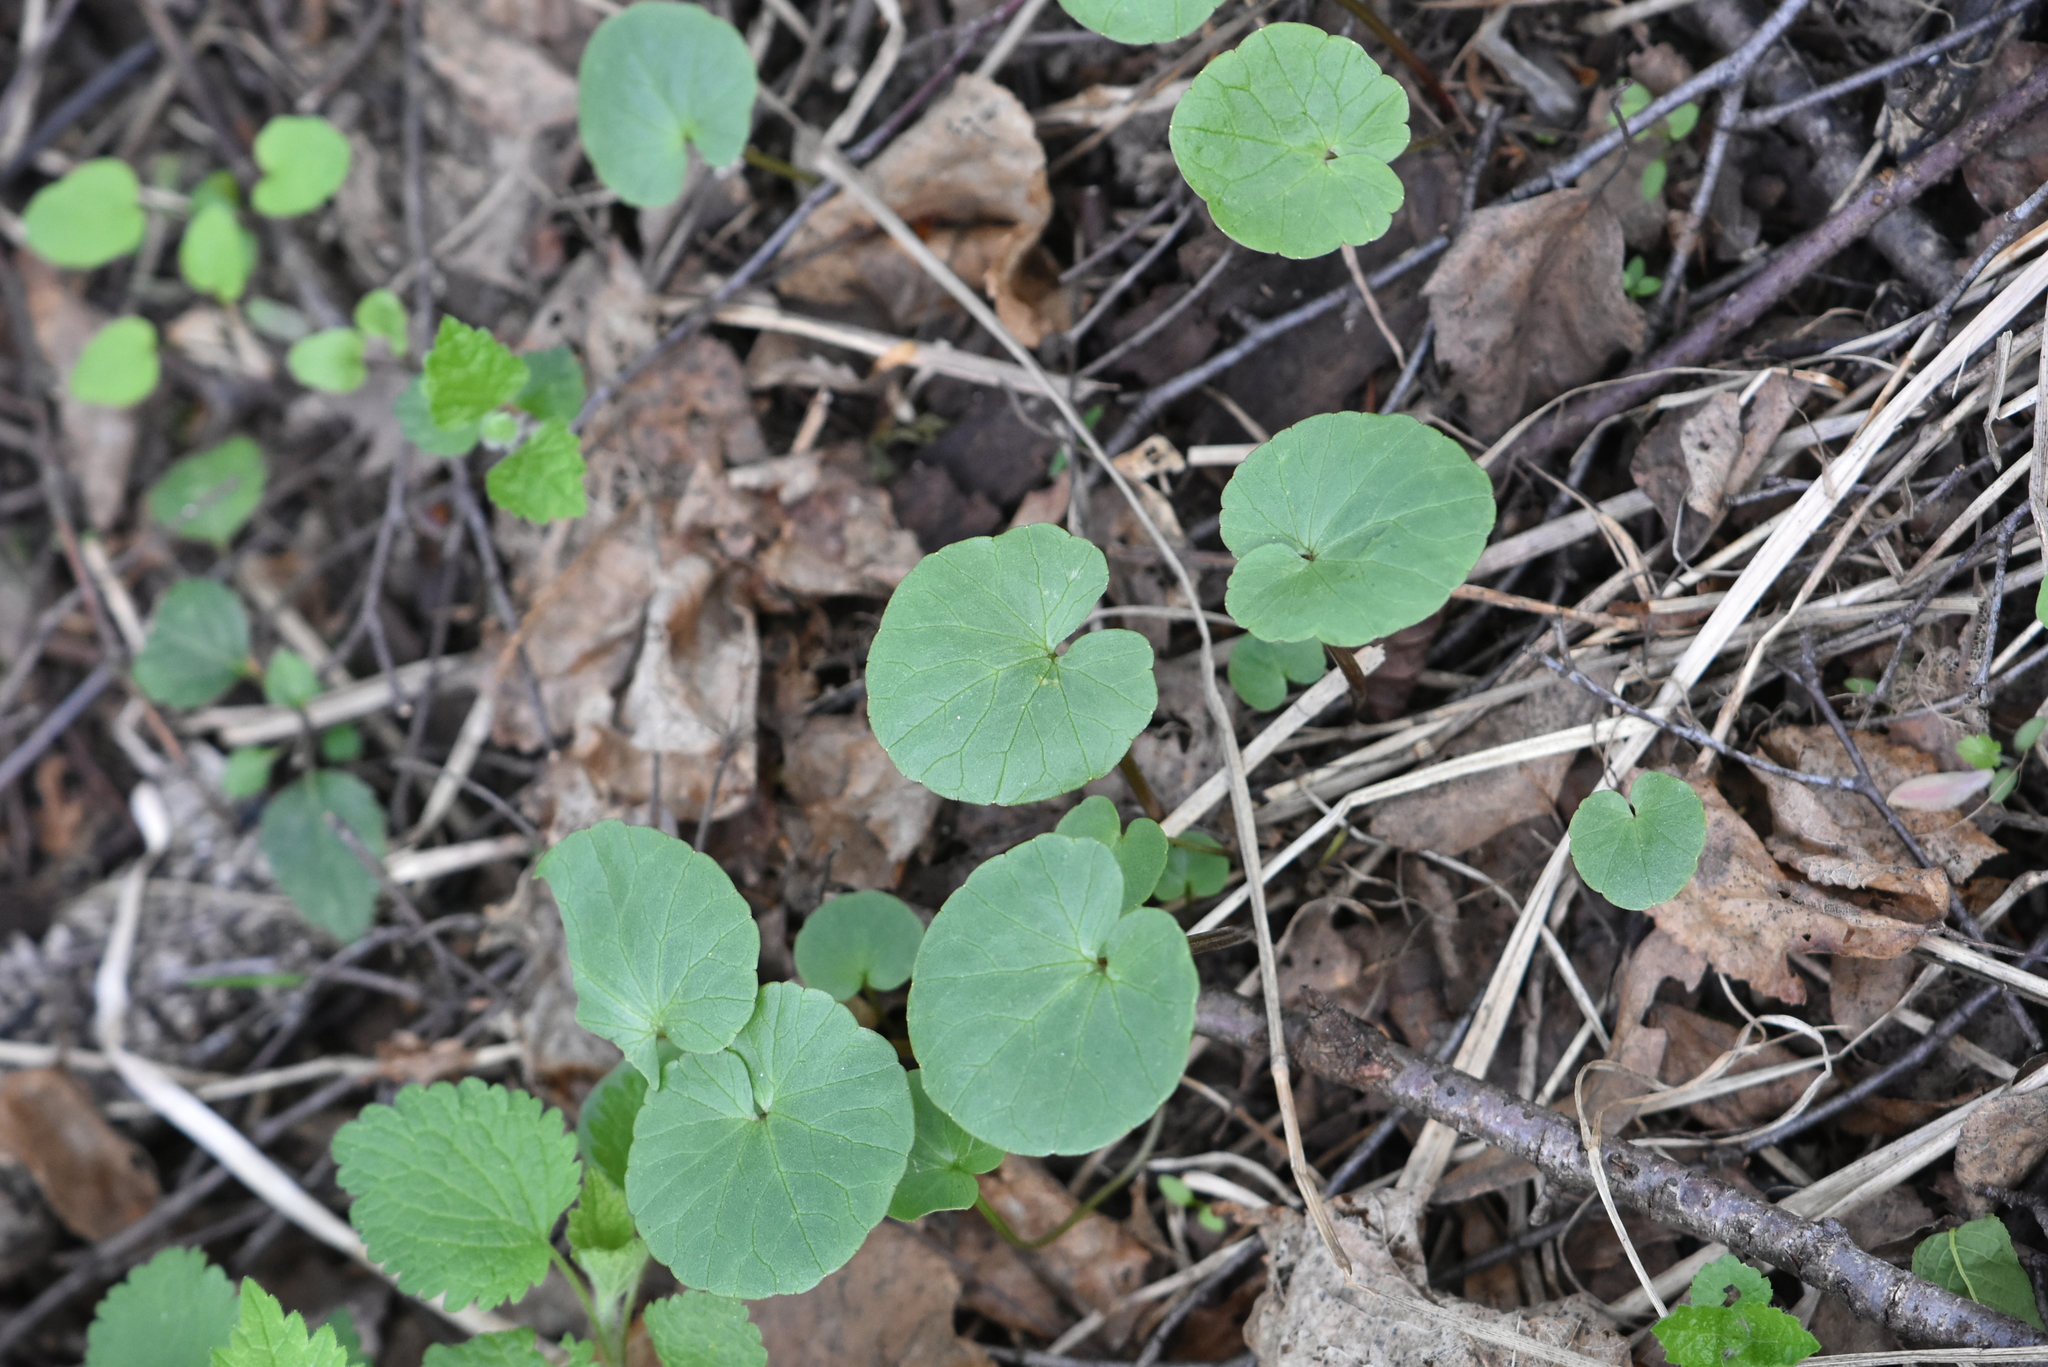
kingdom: Plantae
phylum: Tracheophyta
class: Magnoliopsida
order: Ranunculales
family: Ranunculaceae
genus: Ficaria
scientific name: Ficaria verna
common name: Lesser celandine
